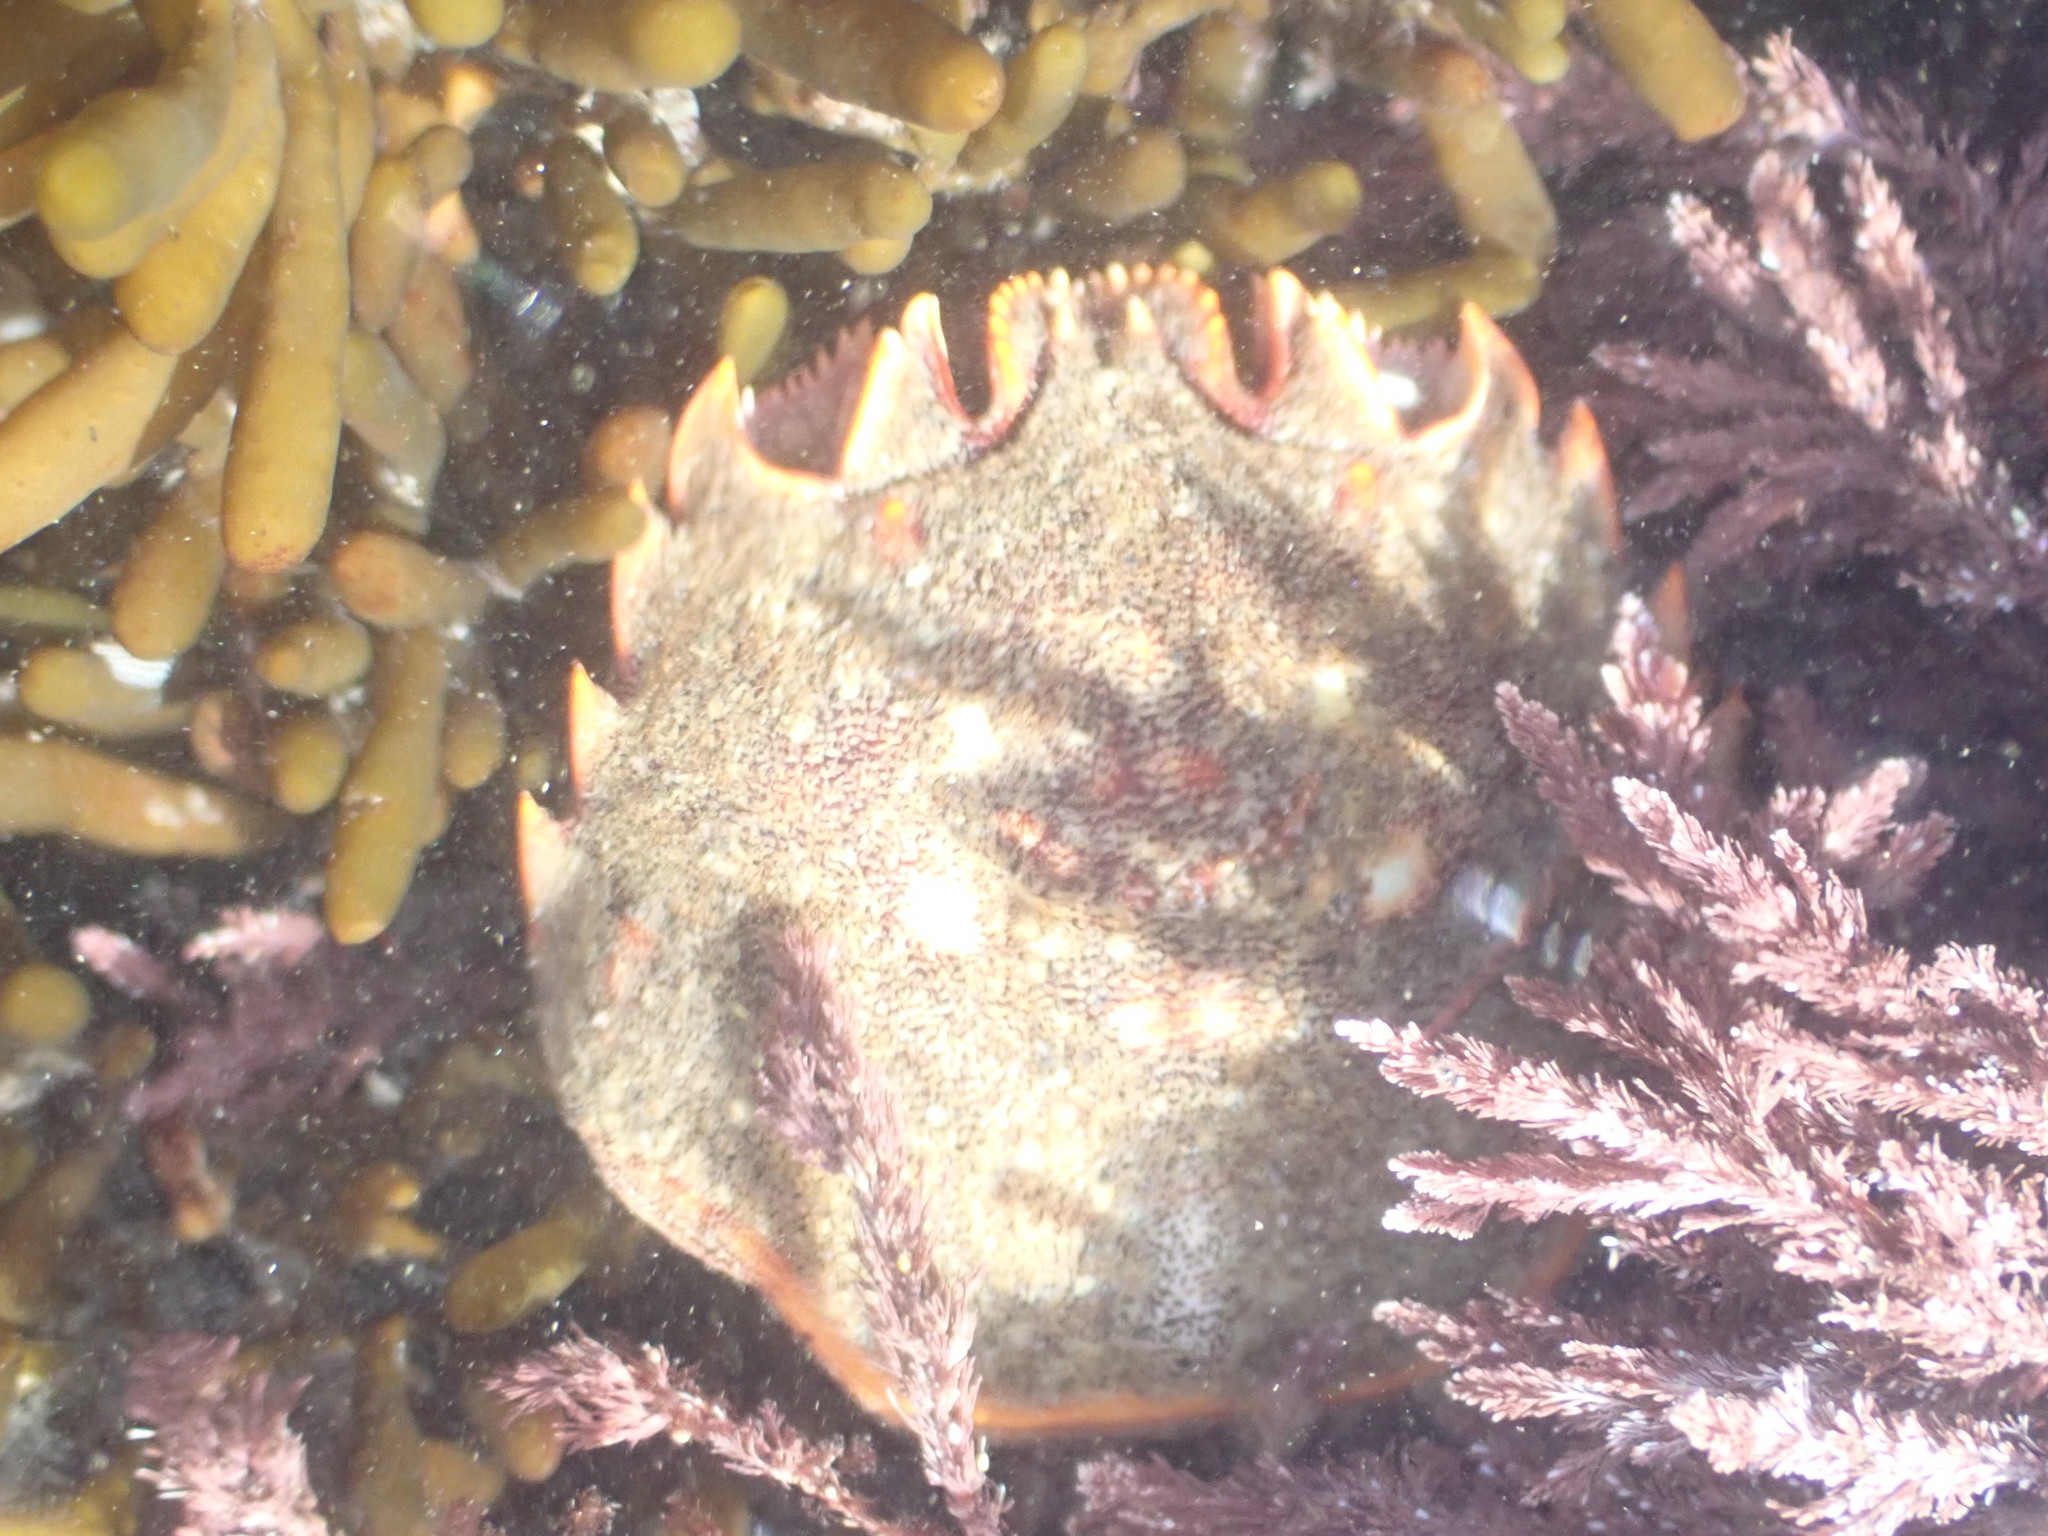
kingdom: Animalia
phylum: Arthropoda
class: Malacostraca
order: Decapoda
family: Plagusiidae
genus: Guinusia
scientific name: Guinusia chabrus
